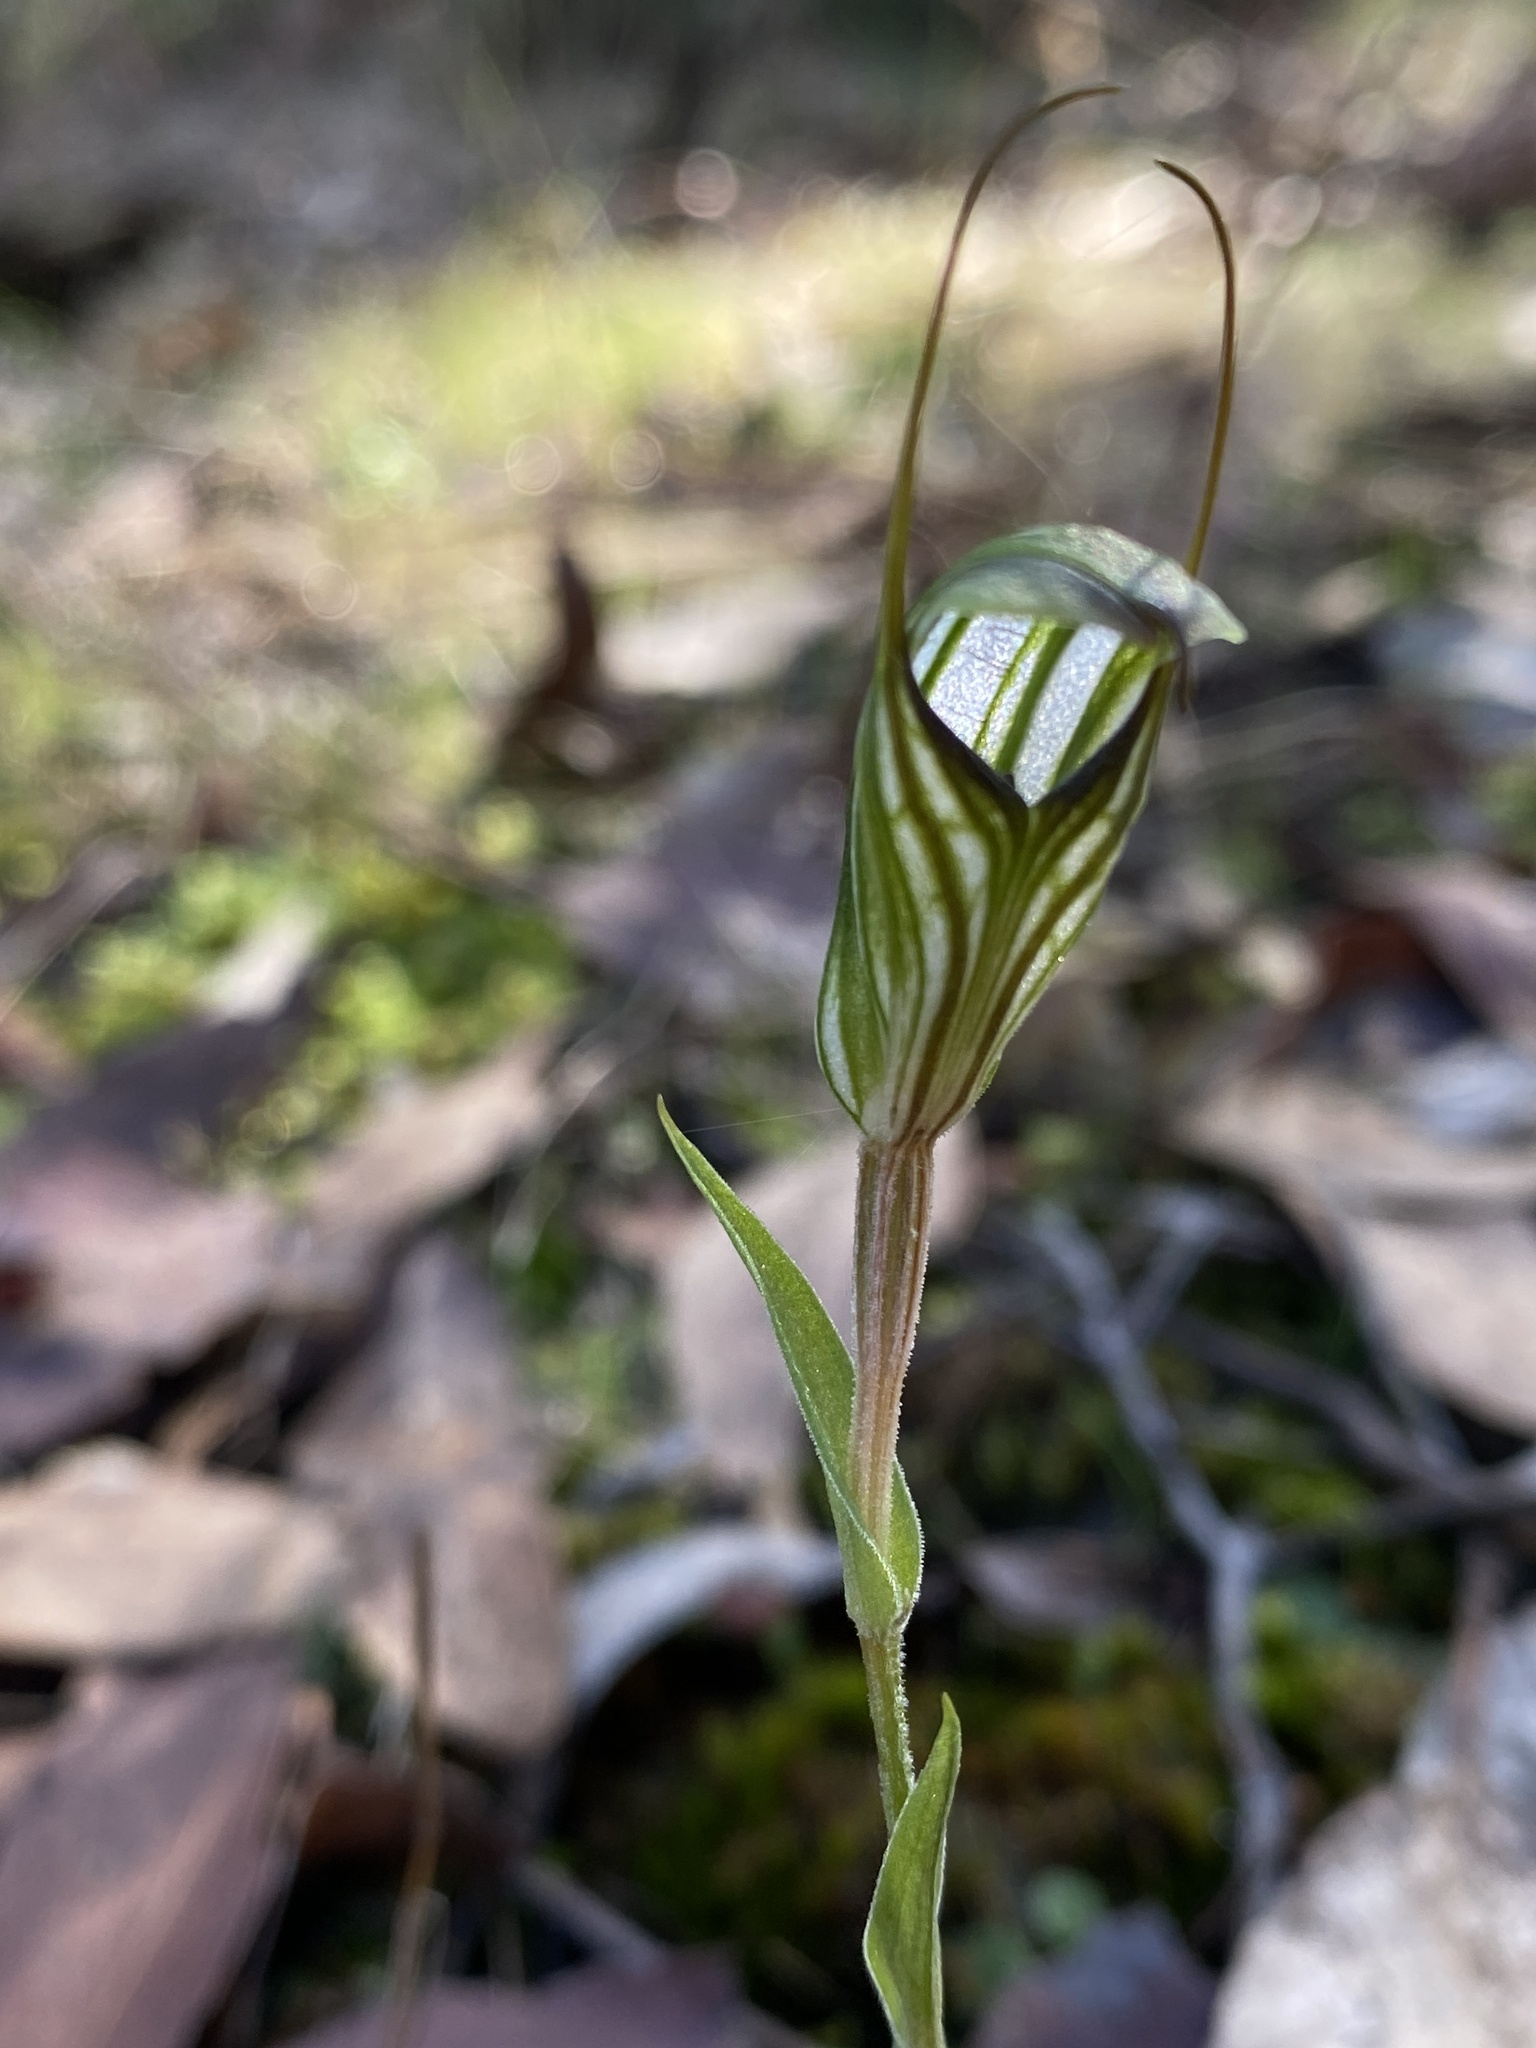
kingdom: Plantae
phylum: Tracheophyta
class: Liliopsida
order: Asparagales
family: Orchidaceae
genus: Pterostylis
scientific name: Pterostylis alata
